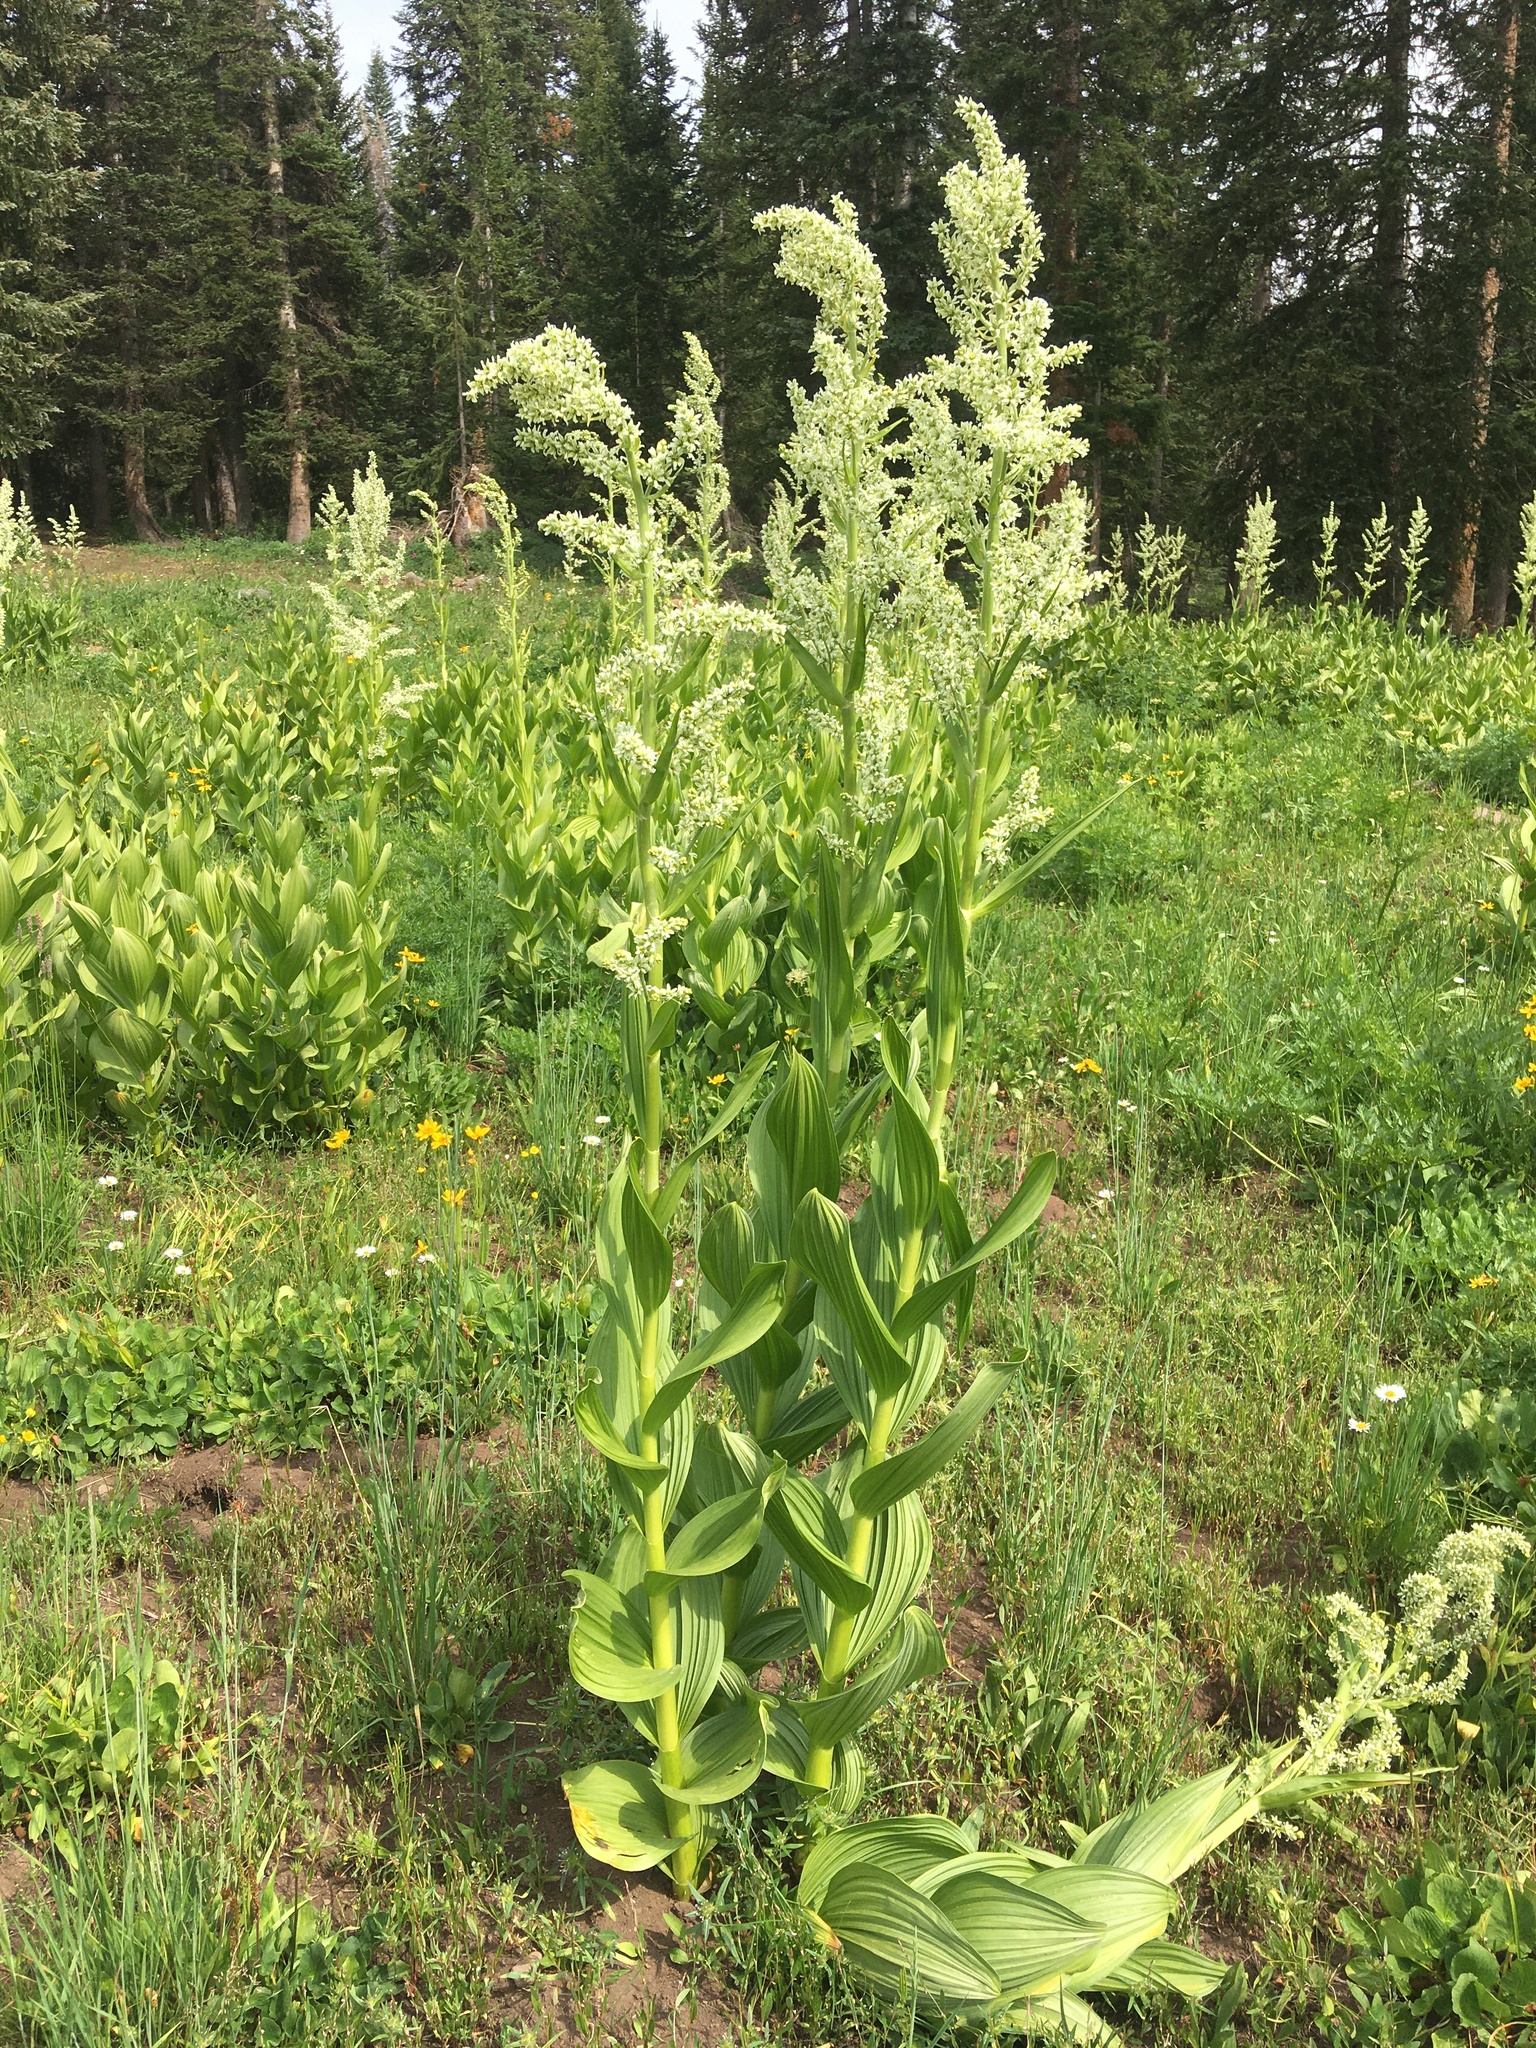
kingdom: Plantae
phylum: Tracheophyta
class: Liliopsida
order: Liliales
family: Melanthiaceae
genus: Veratrum
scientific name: Veratrum californicum
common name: California veratrum
